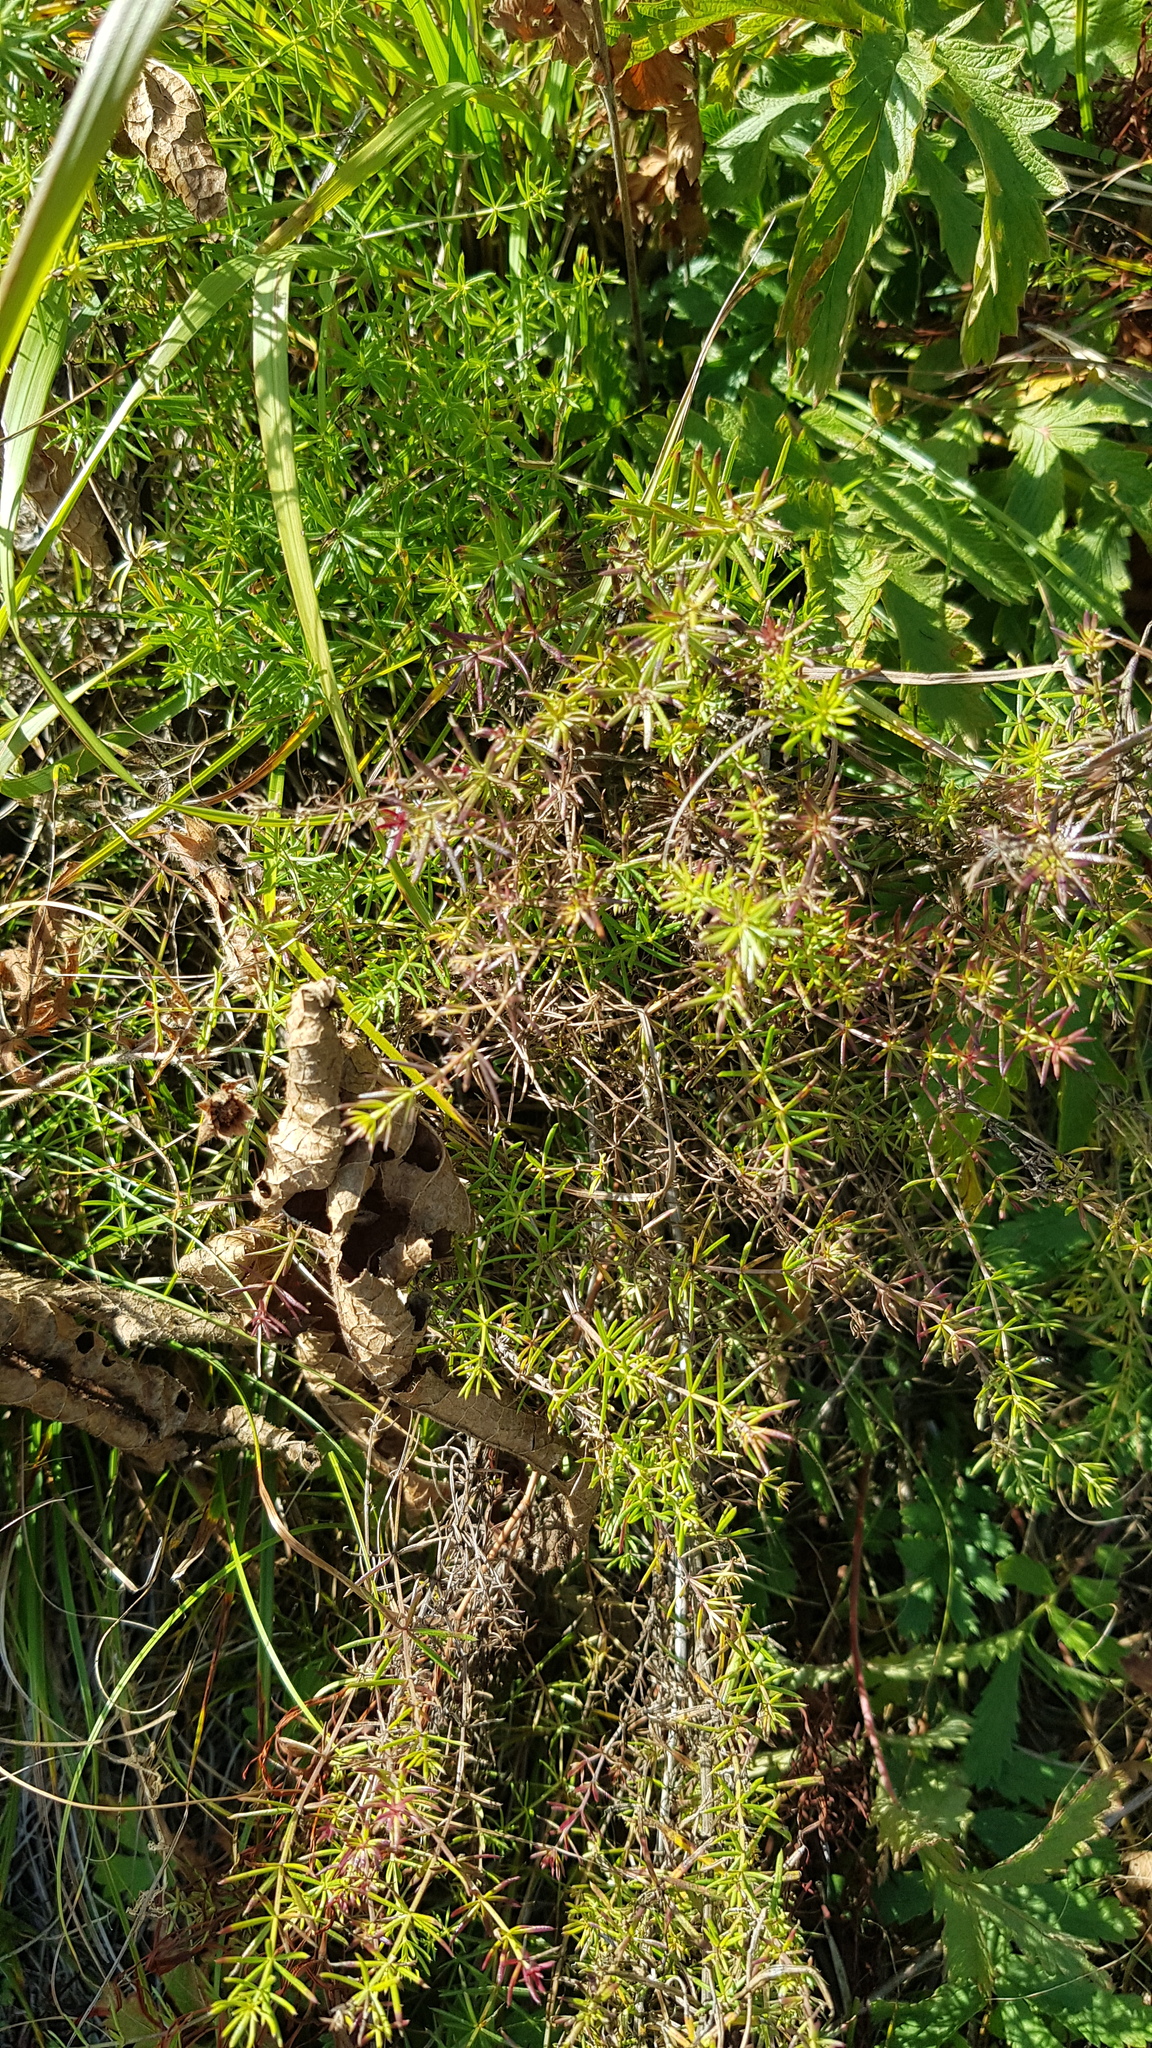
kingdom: Plantae
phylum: Tracheophyta
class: Magnoliopsida
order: Gentianales
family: Rubiaceae
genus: Galium
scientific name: Galium verum
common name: Lady's bedstraw
